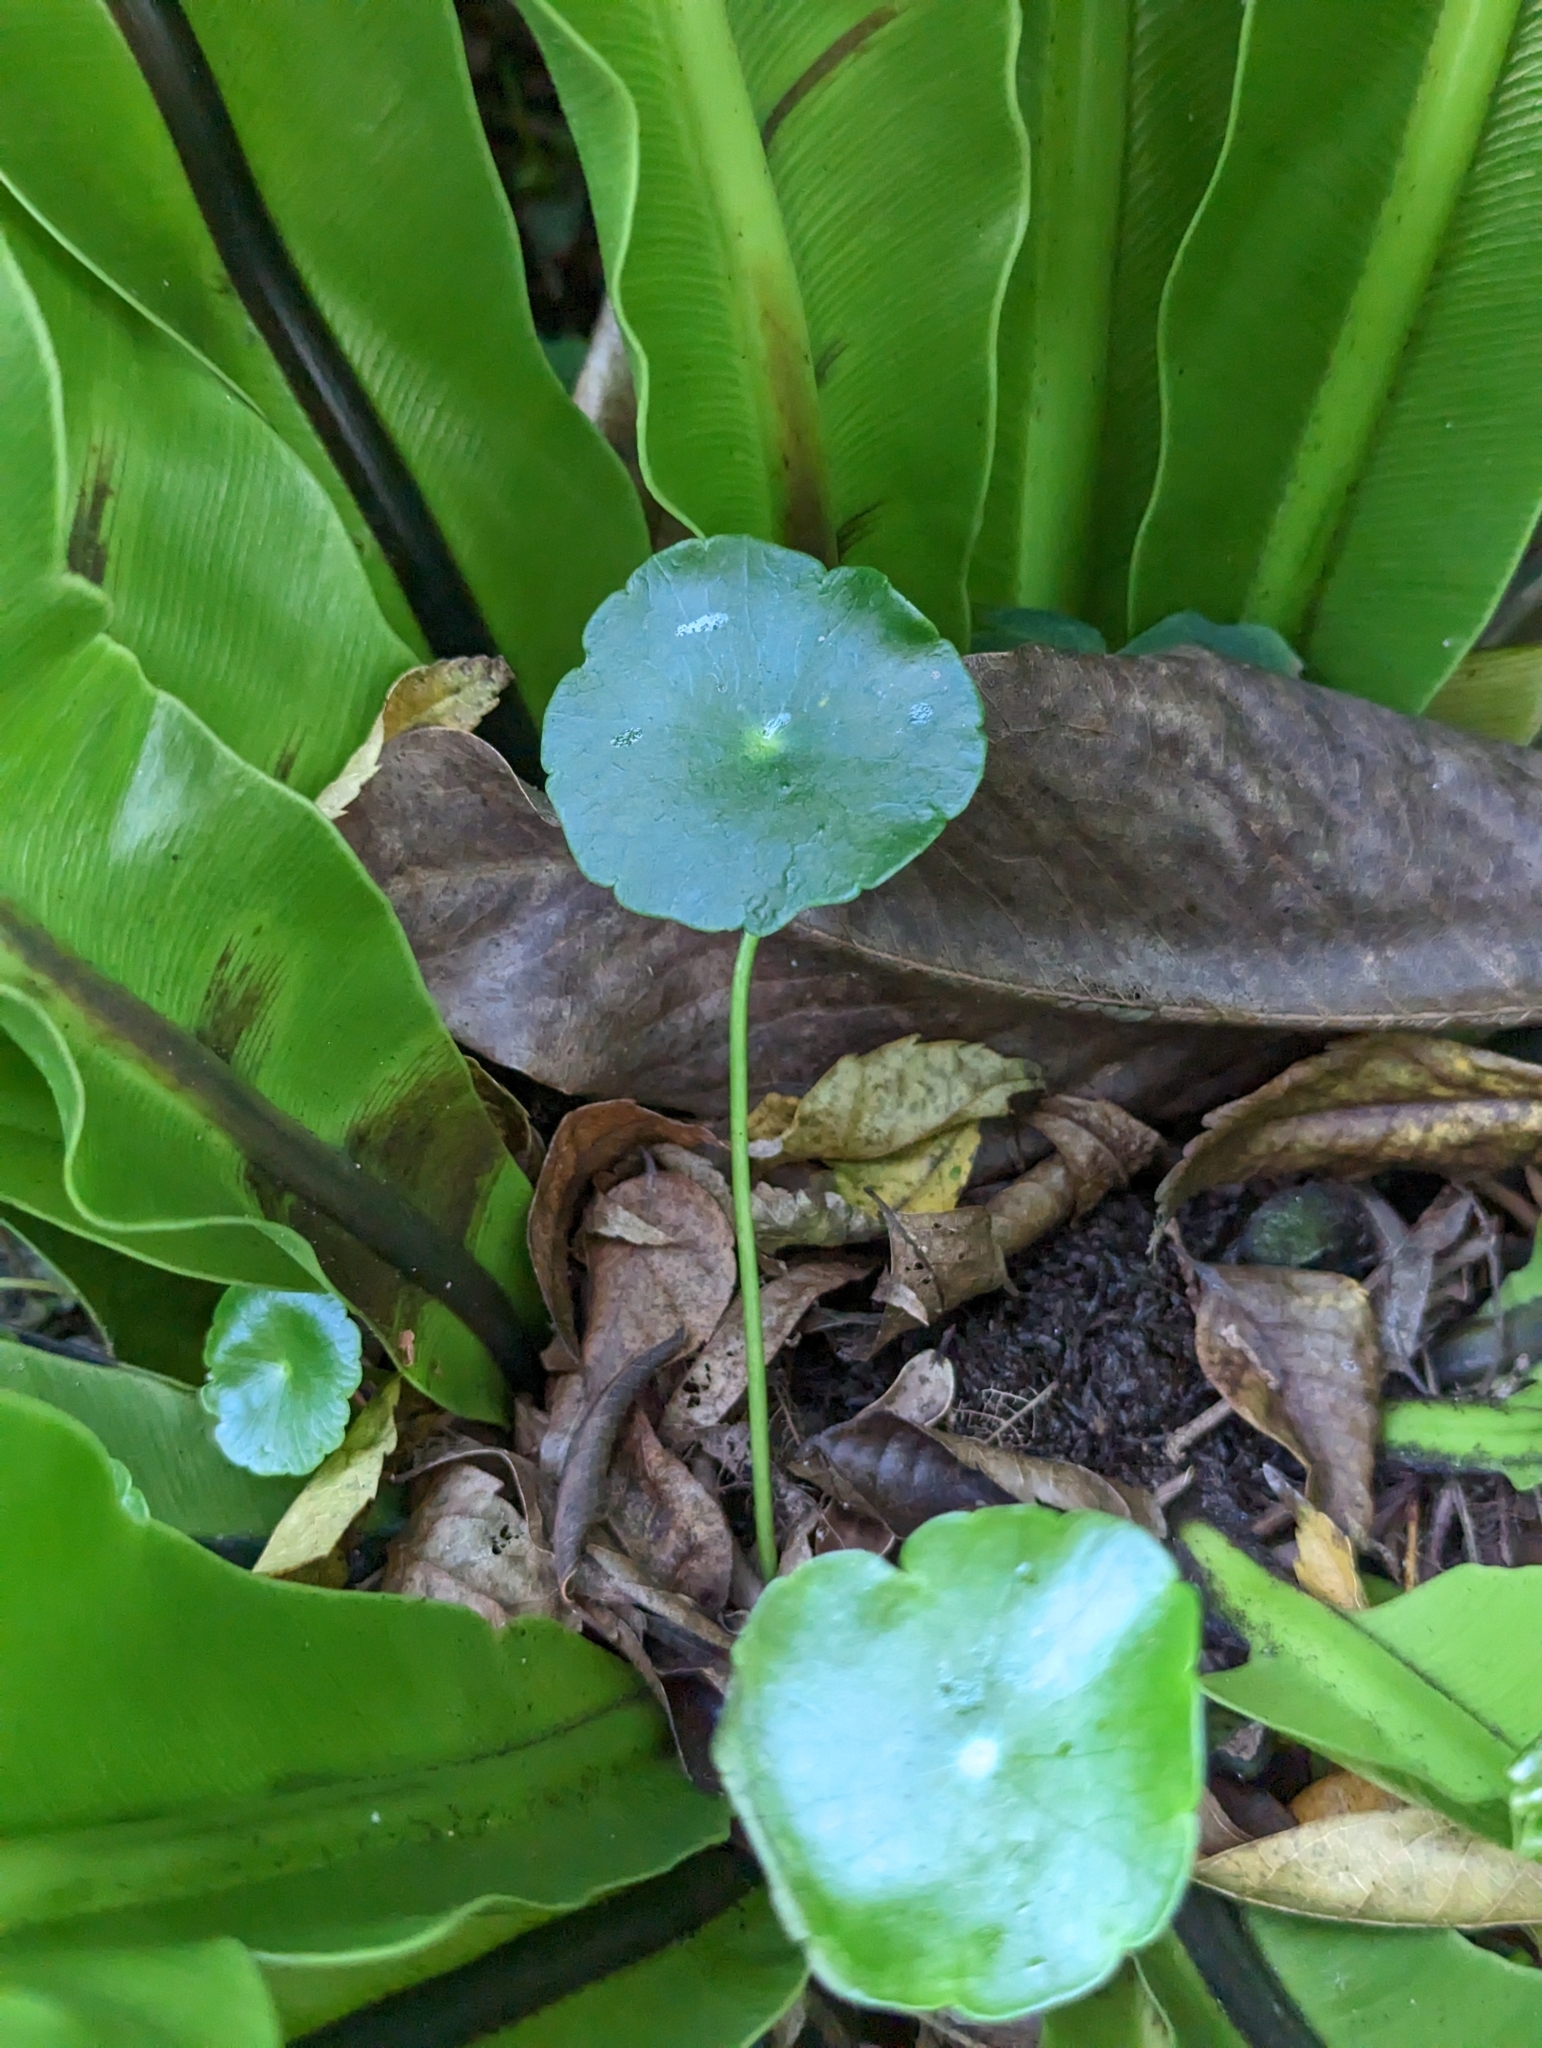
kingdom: Plantae
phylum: Tracheophyta
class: Magnoliopsida
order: Apiales
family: Araliaceae
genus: Hydrocotyle
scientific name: Hydrocotyle verticillata
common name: Whorled marshpennywort
